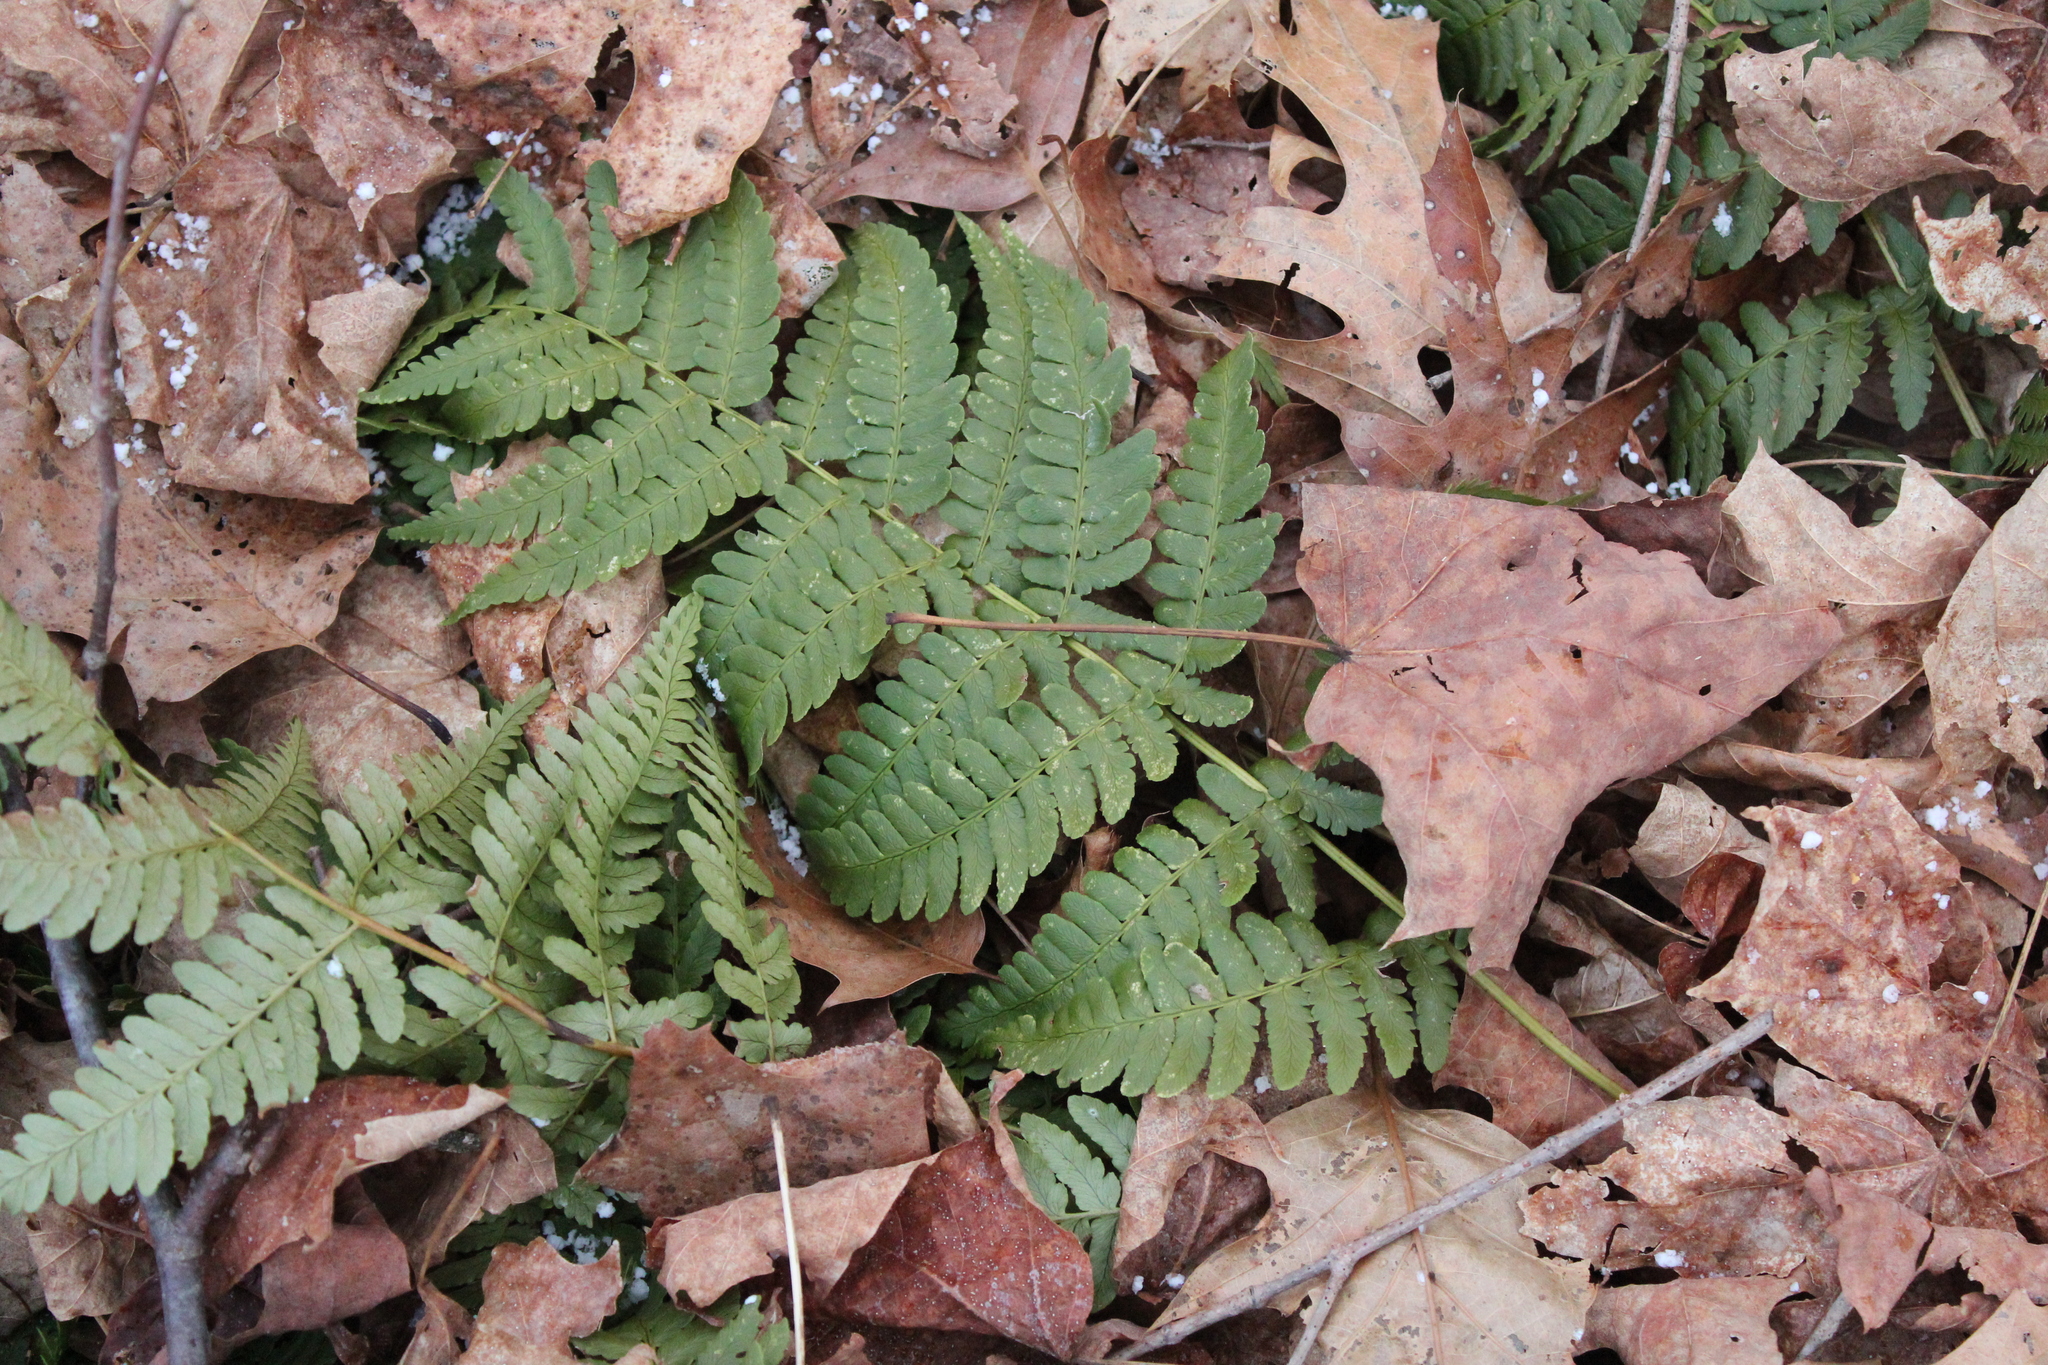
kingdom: Plantae
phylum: Tracheophyta
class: Polypodiopsida
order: Polypodiales
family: Dryopteridaceae
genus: Dryopteris
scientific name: Dryopteris marginalis
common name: Marginal wood fern
